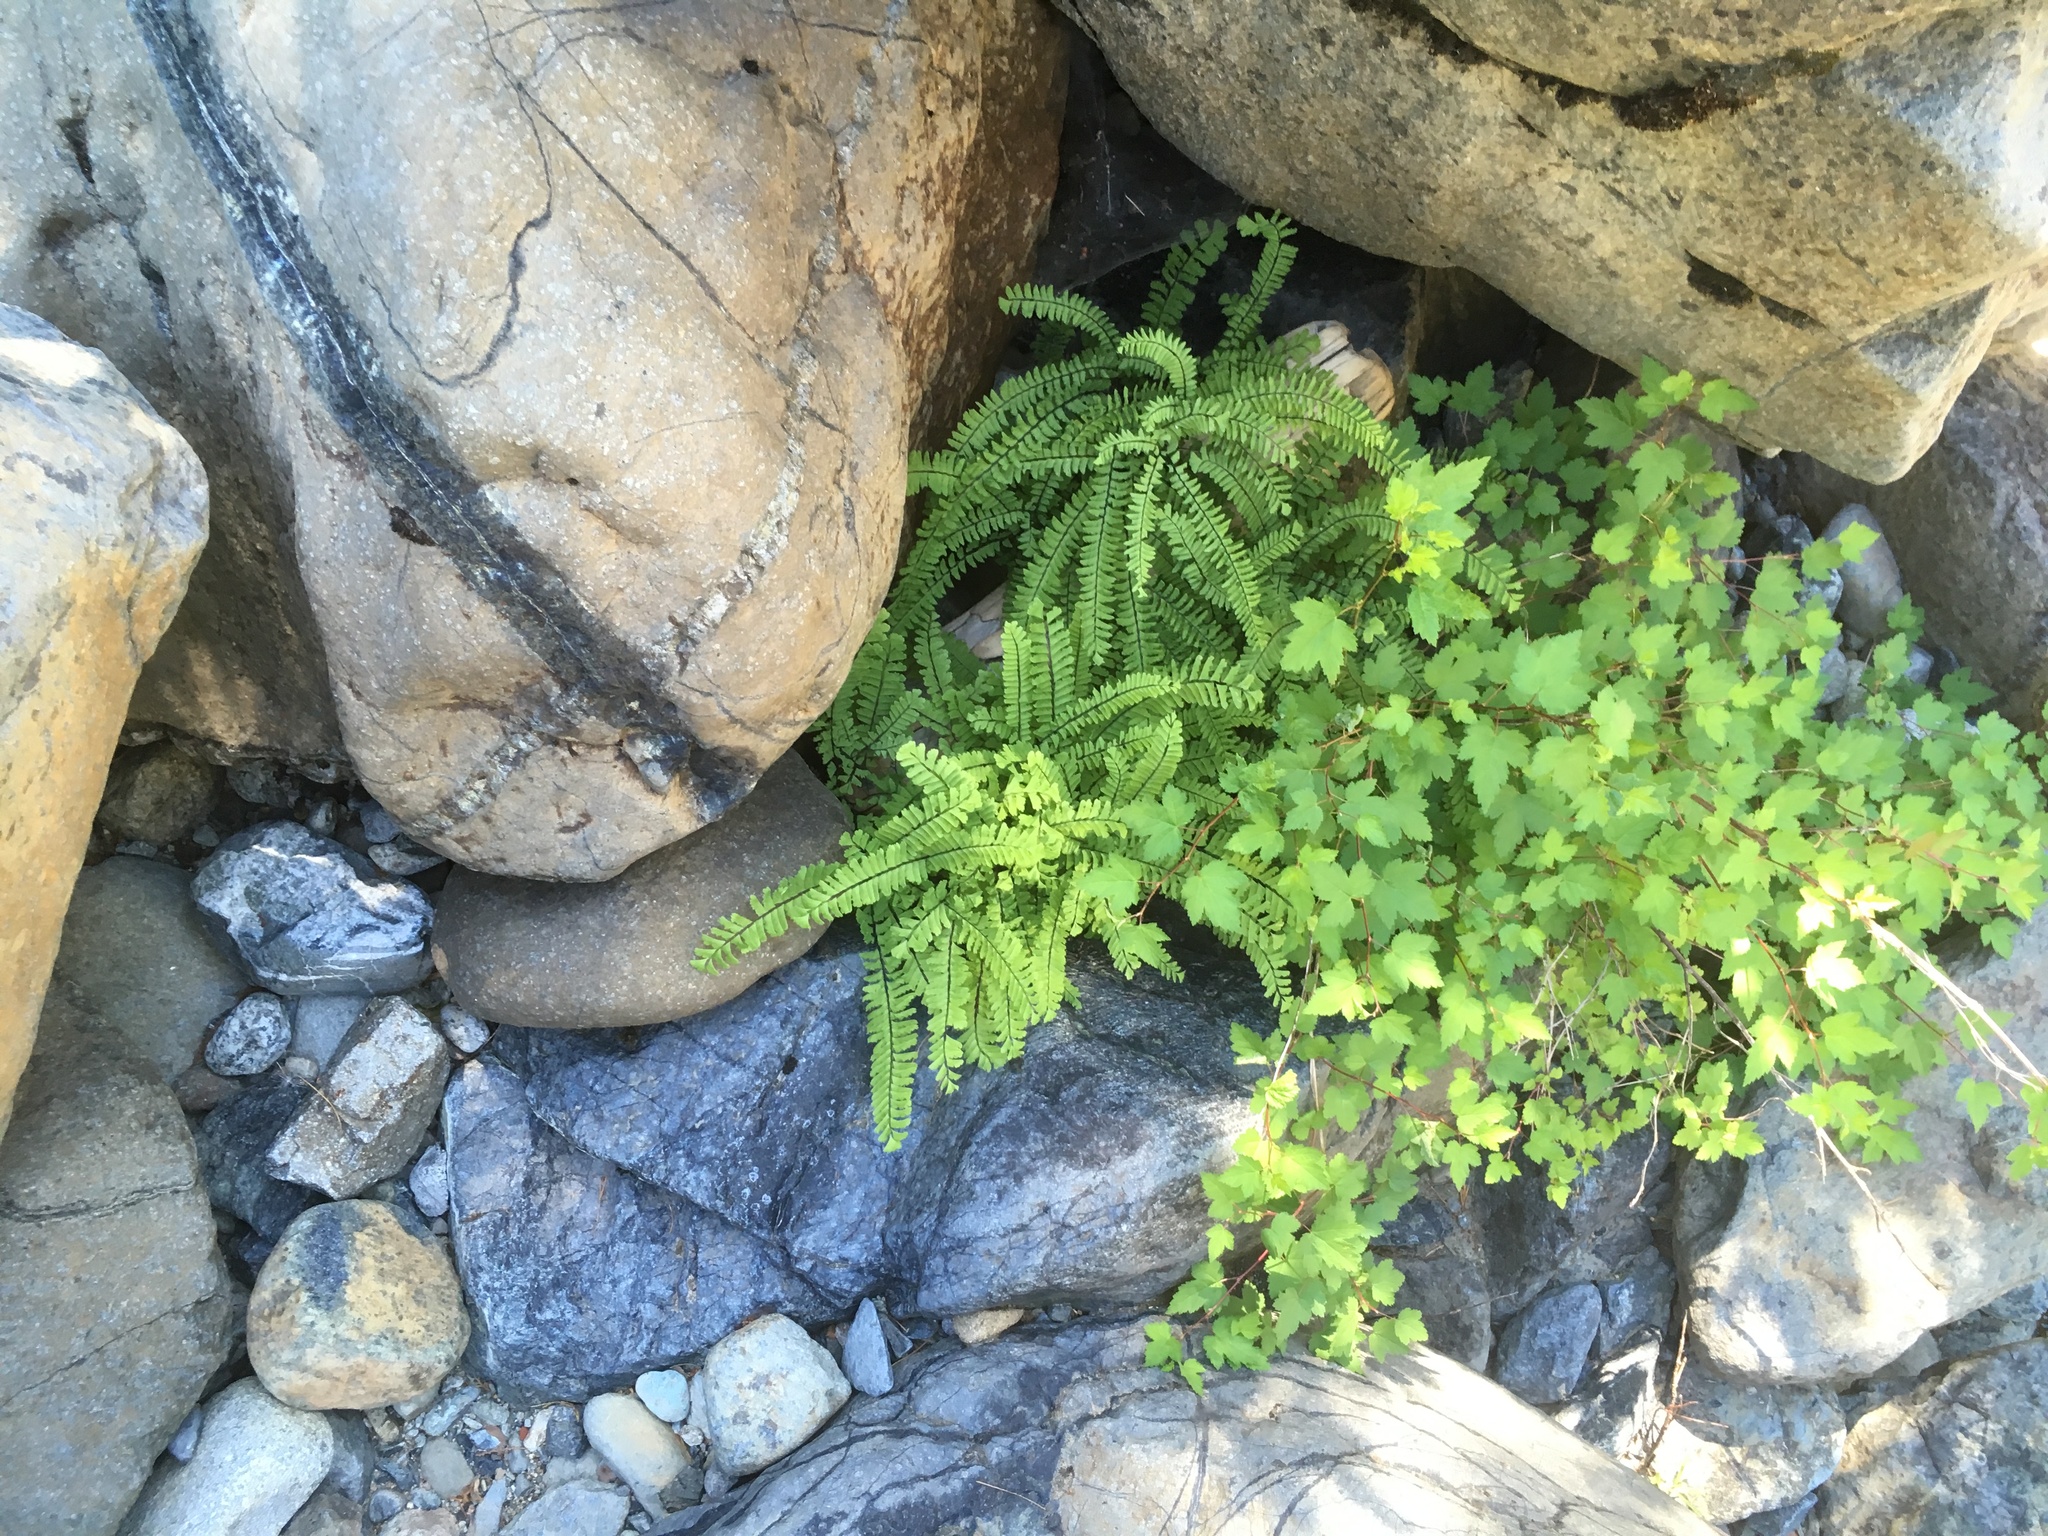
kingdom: Plantae
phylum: Tracheophyta
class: Polypodiopsida
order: Polypodiales
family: Pteridaceae
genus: Adiantum
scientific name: Adiantum aleuticum
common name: Aleutian maidenhair fern
